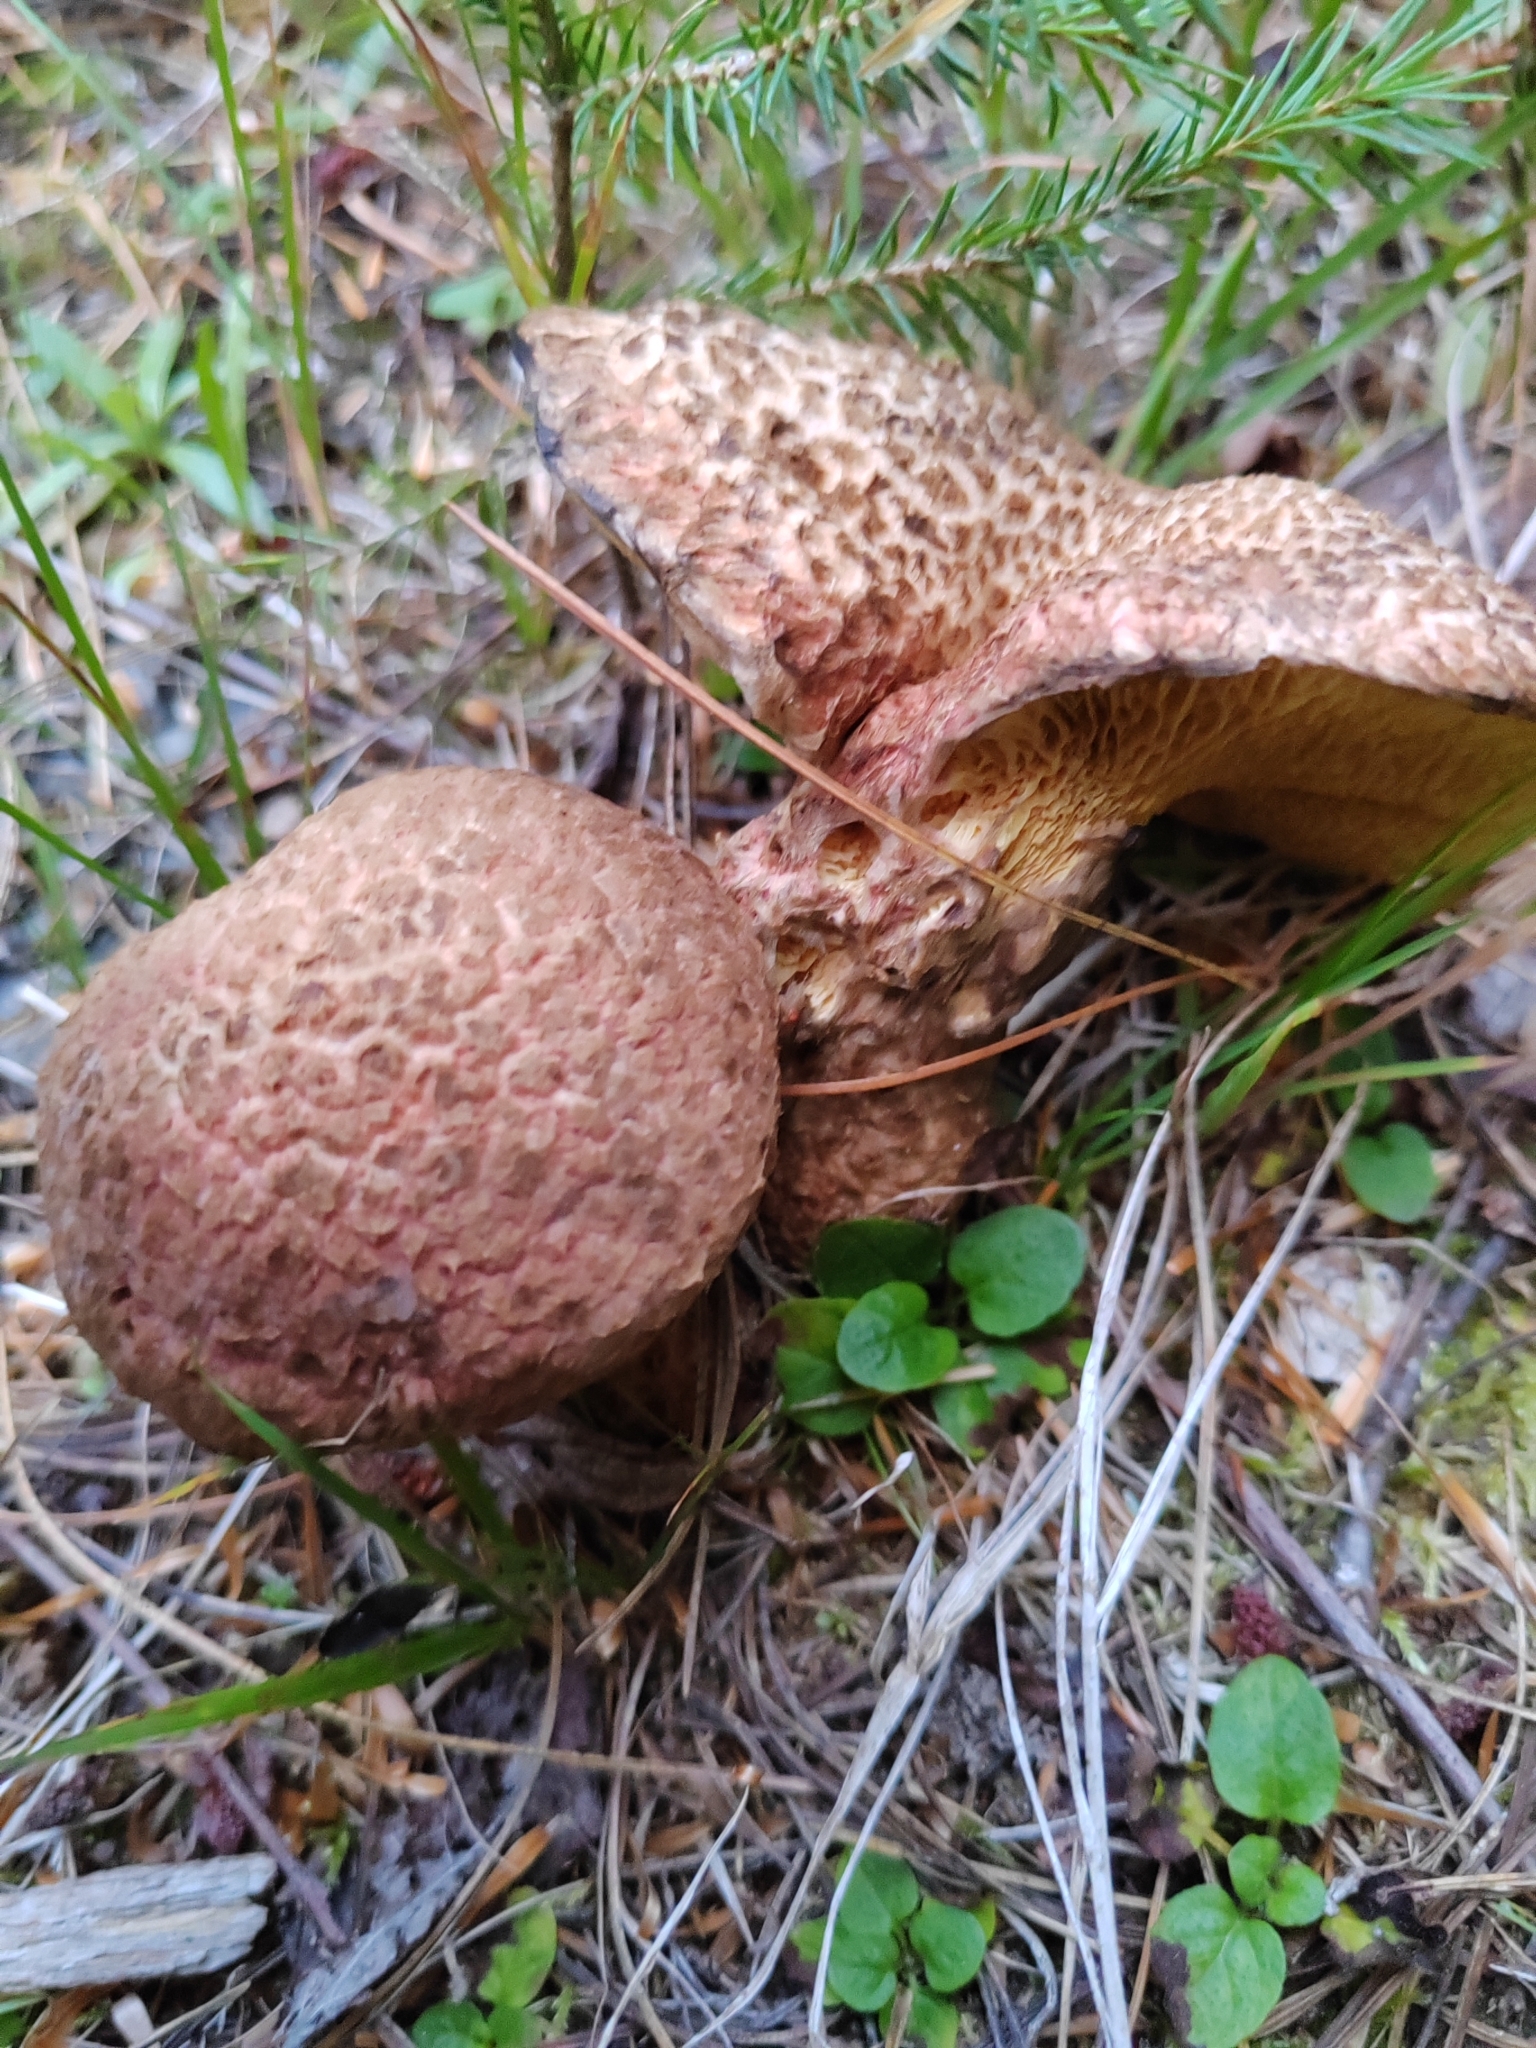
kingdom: Fungi
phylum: Basidiomycota
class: Agaricomycetes
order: Boletales
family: Suillaceae
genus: Suillus
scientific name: Suillus spraguei
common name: Painted suillus
